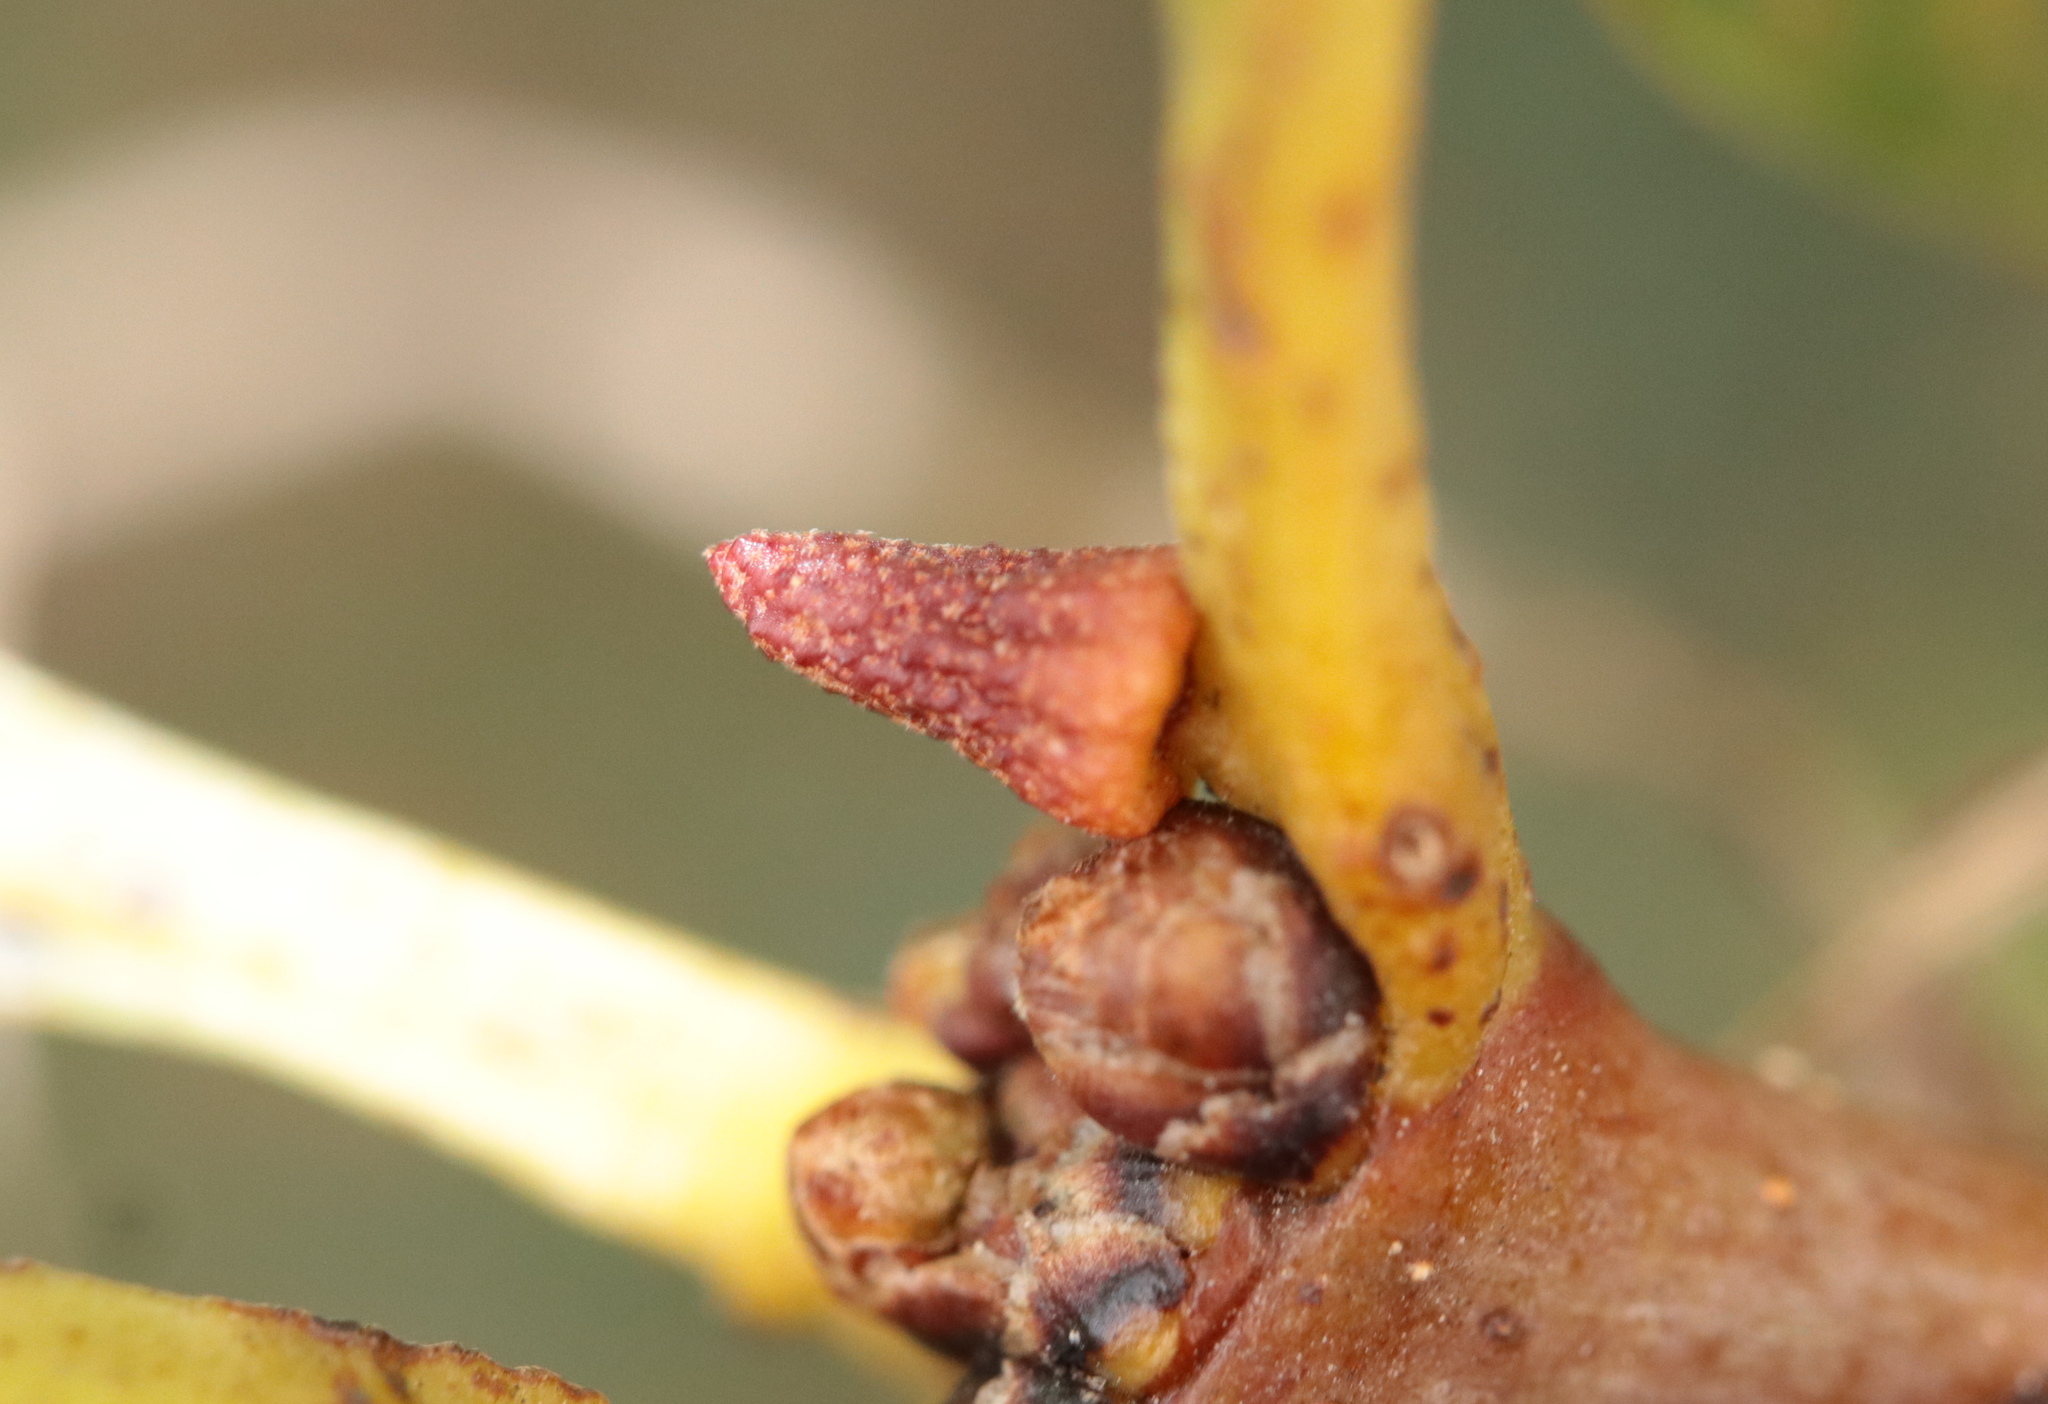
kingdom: Animalia
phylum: Arthropoda
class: Insecta
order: Hymenoptera
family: Cynipidae
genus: Zopheroteras
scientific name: Zopheroteras
